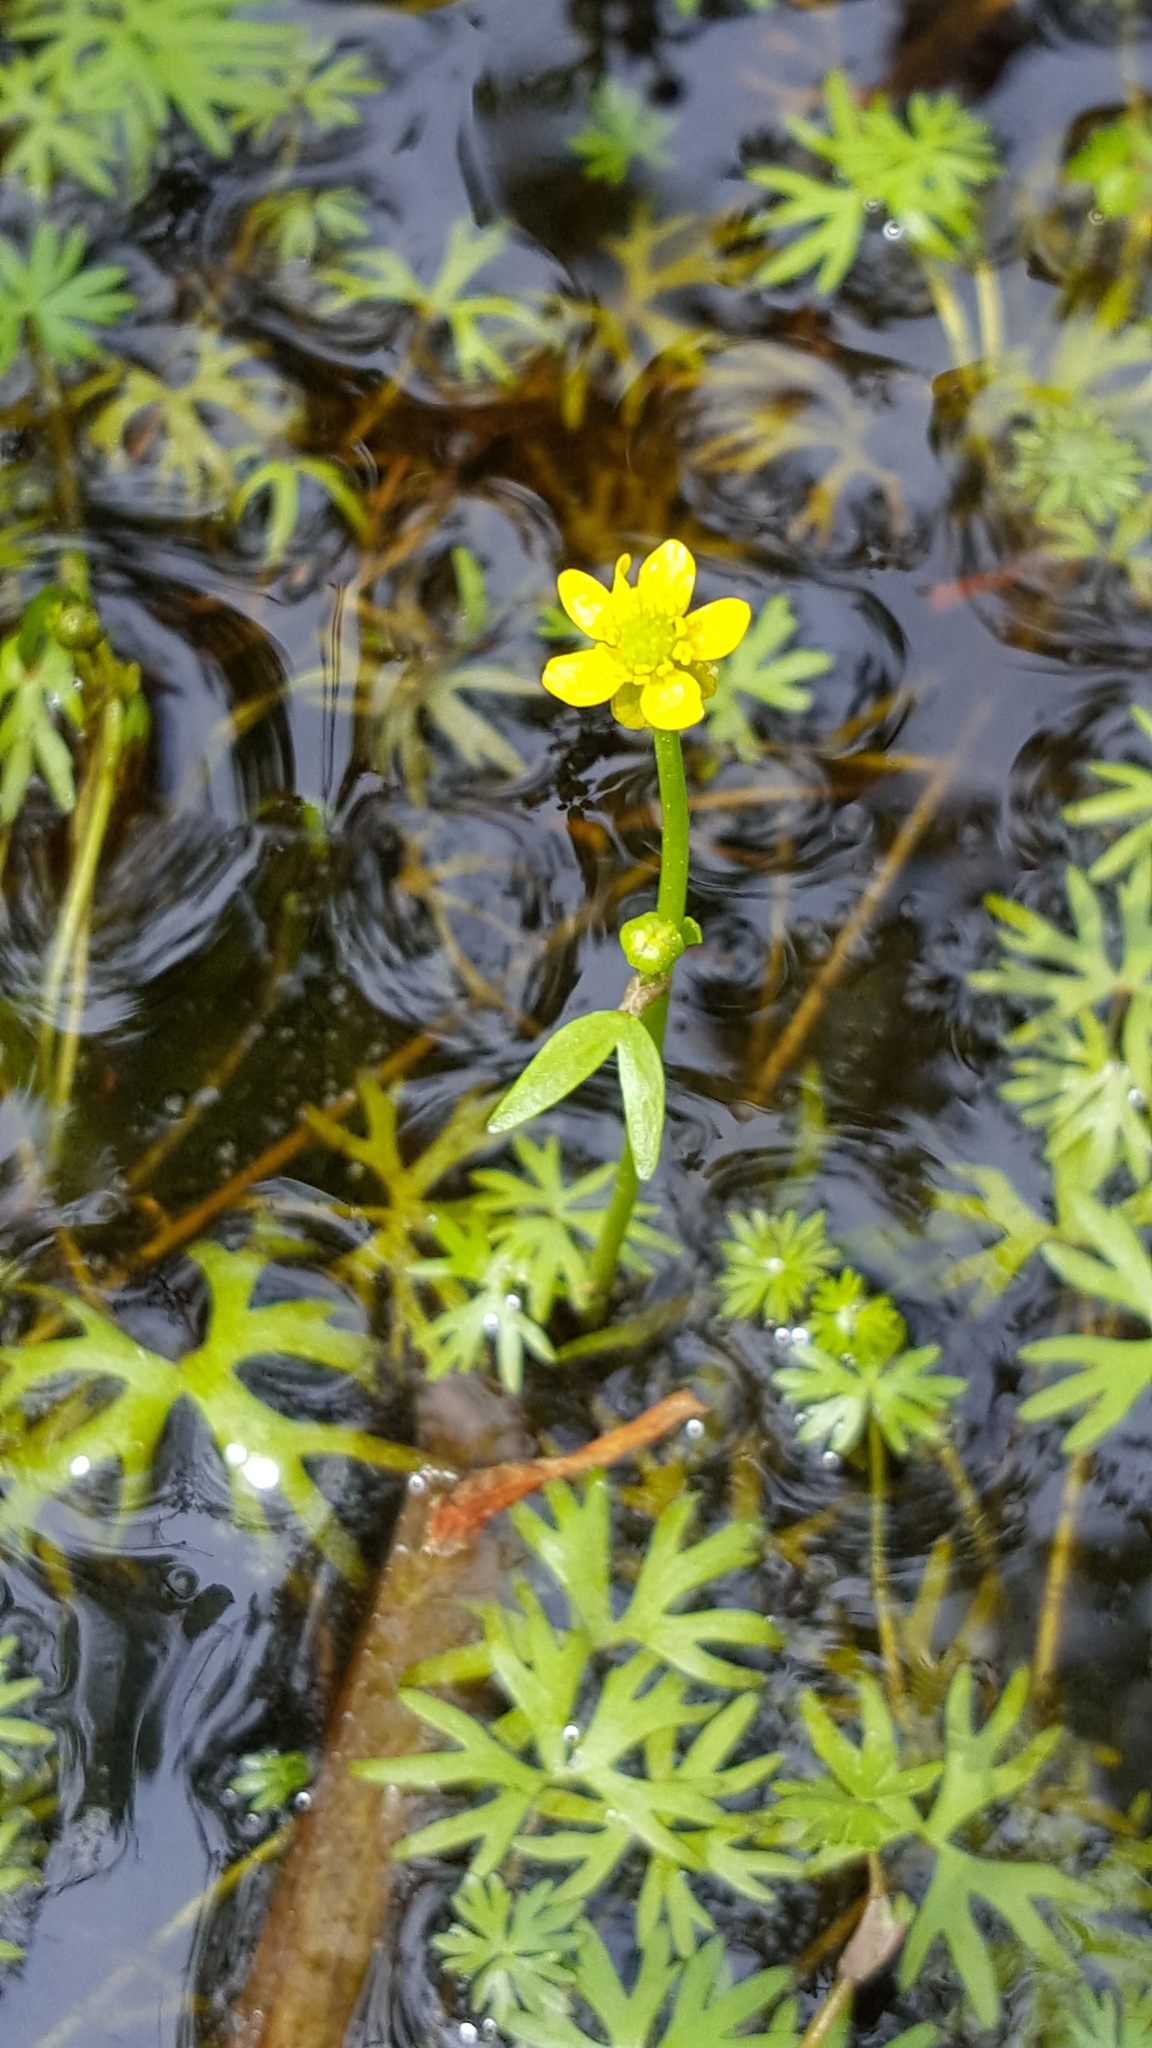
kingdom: Plantae
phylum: Tracheophyta
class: Magnoliopsida
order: Ranunculales
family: Ranunculaceae
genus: Ranunculus
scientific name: Ranunculus gmelinii
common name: Gmelin's buttercup
